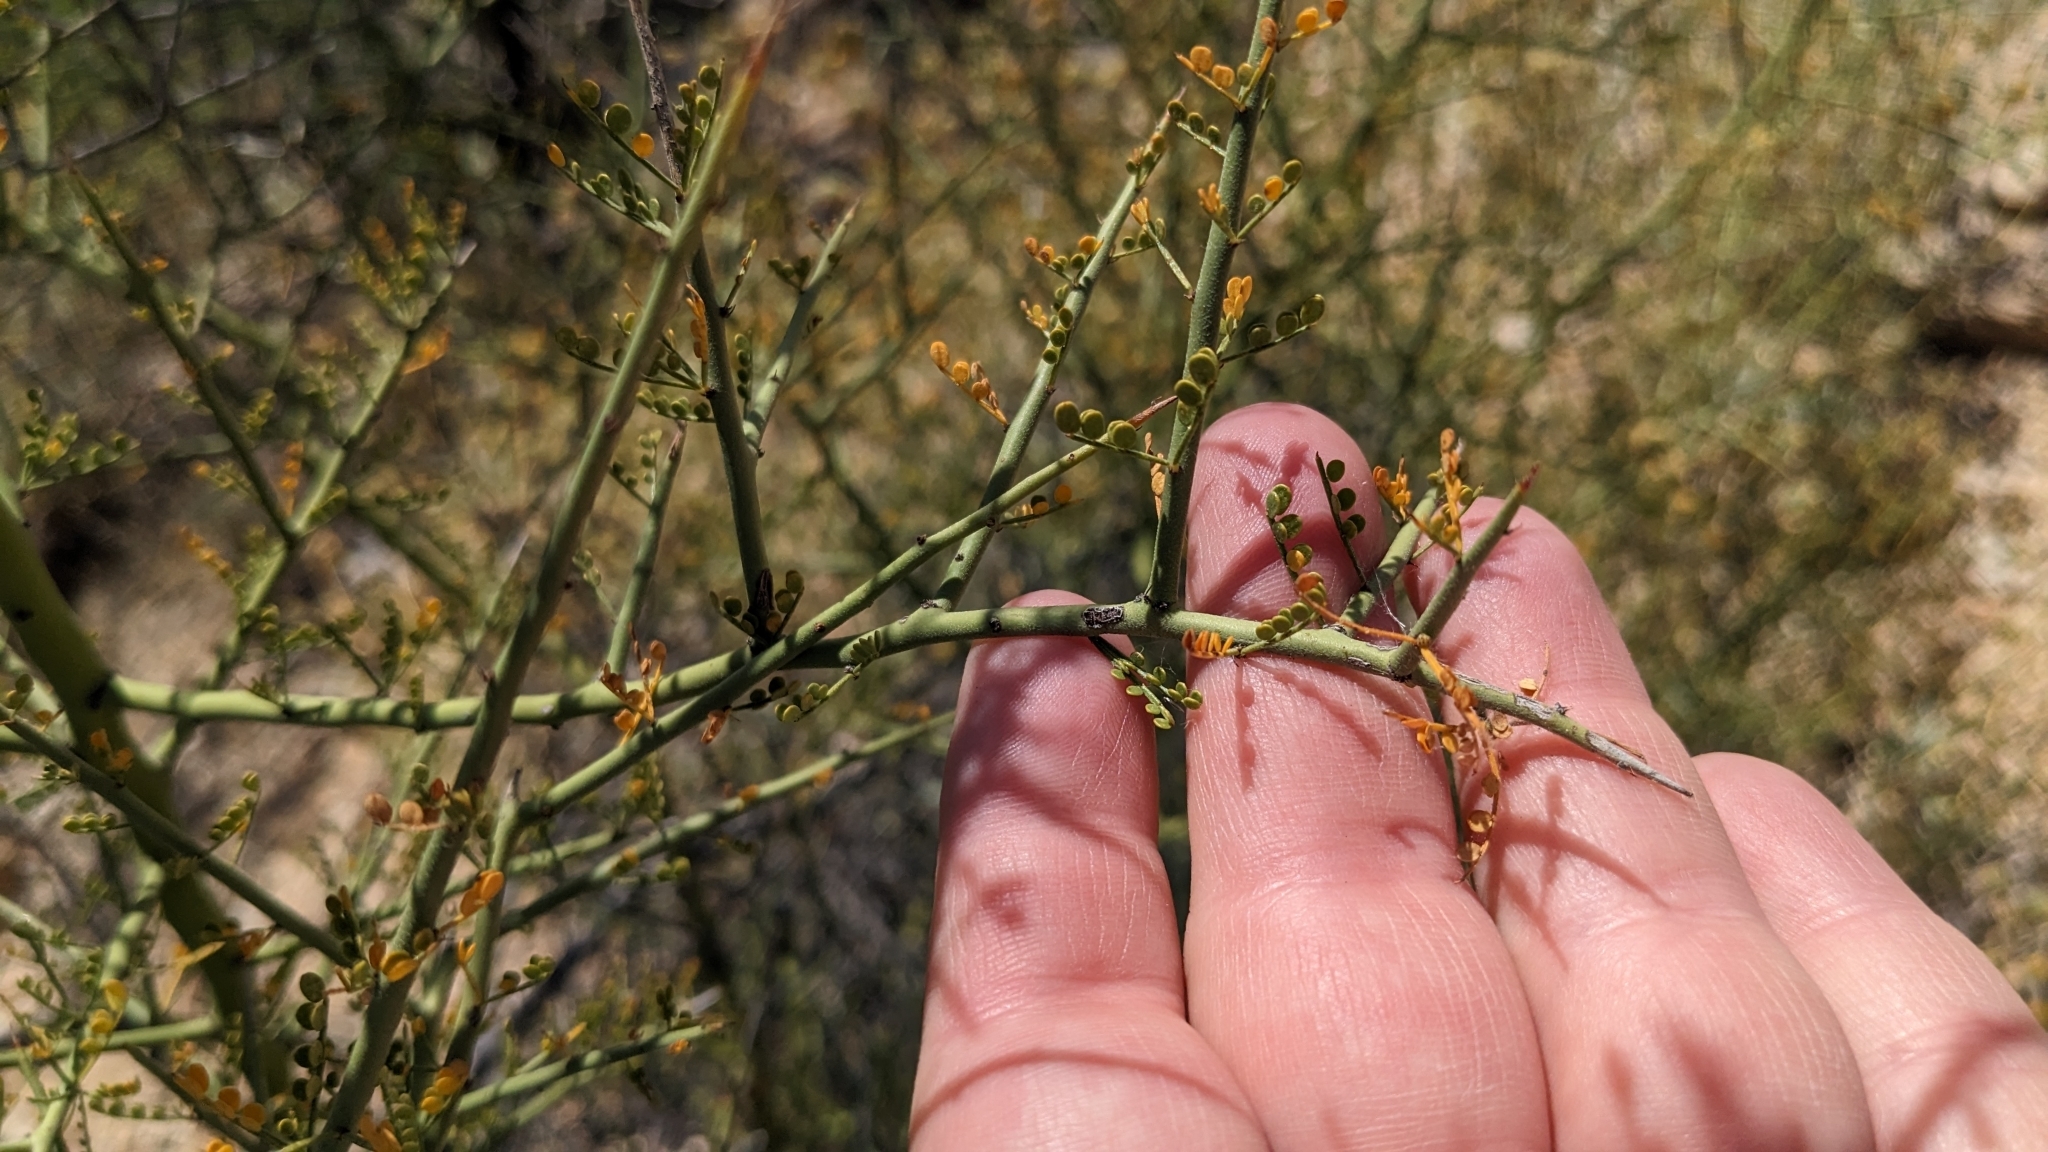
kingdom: Plantae
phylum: Tracheophyta
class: Magnoliopsida
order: Fabales
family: Fabaceae
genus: Parkinsonia
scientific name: Parkinsonia microphylla
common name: Yellow paloverde
